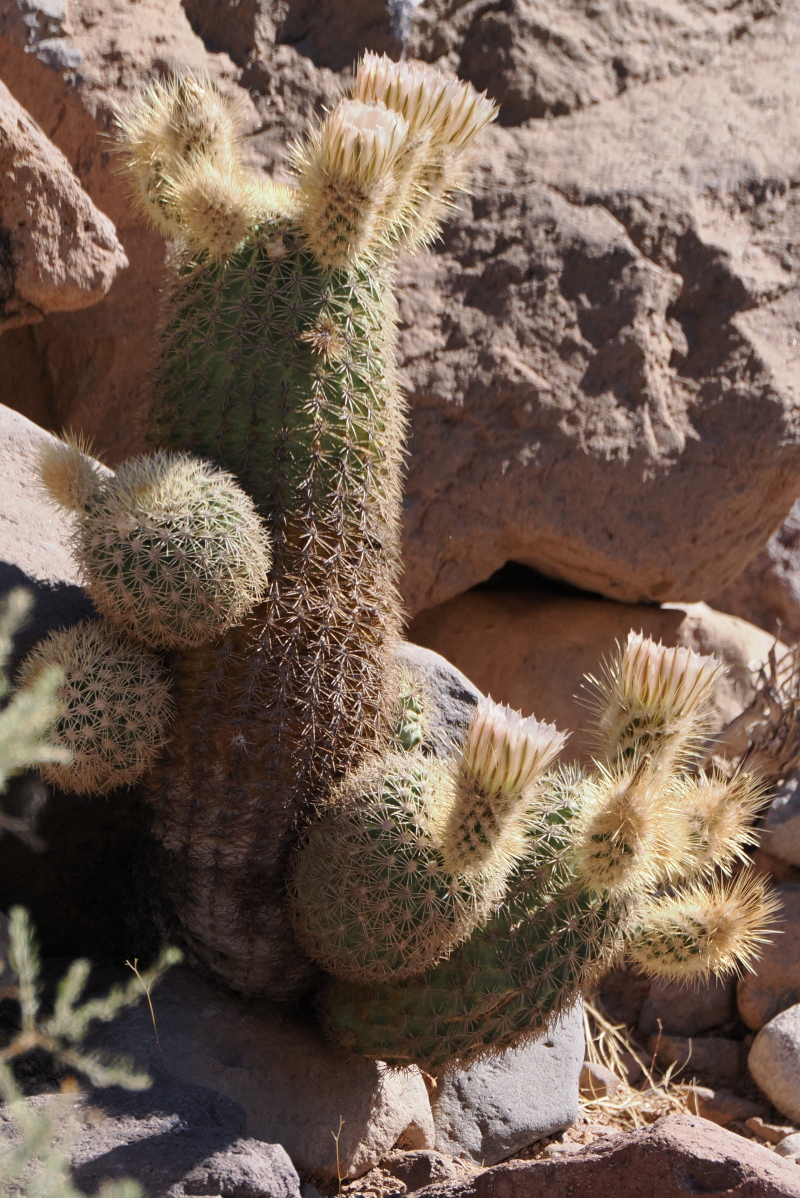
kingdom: Plantae
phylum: Tracheophyta
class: Magnoliopsida
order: Caryophyllales
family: Cactaceae
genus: Echinocereus
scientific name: Echinocereus grandis
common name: San esteban hedgehog
